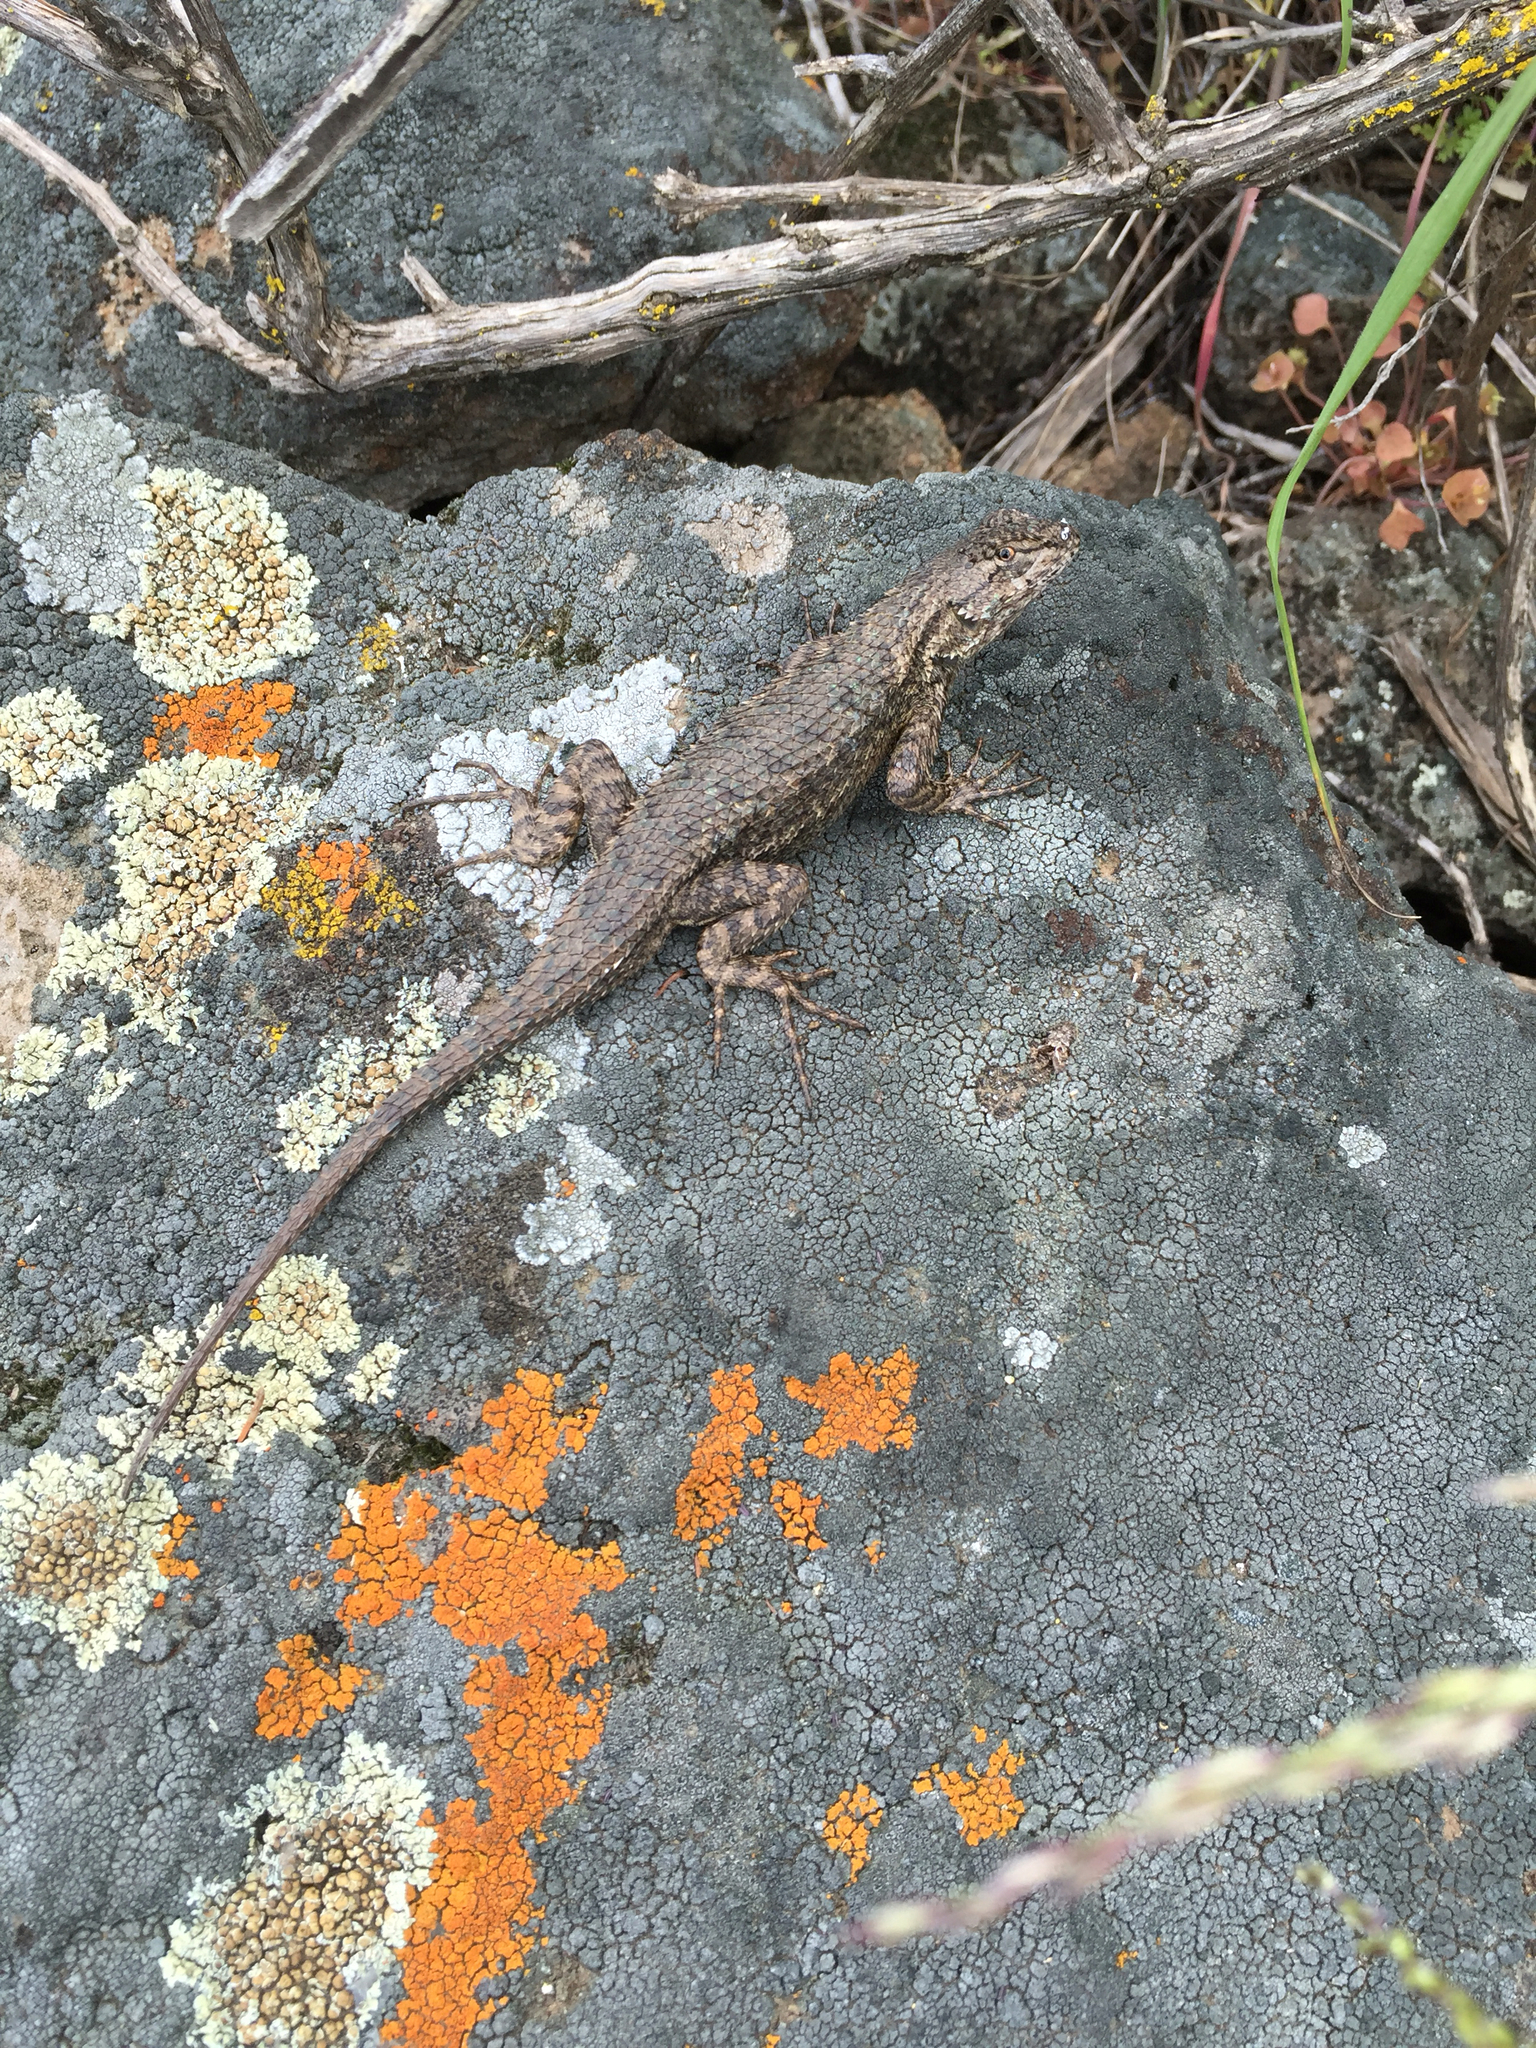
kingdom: Animalia
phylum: Chordata
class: Squamata
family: Phrynosomatidae
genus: Sceloporus
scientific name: Sceloporus occidentalis
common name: Western fence lizard
